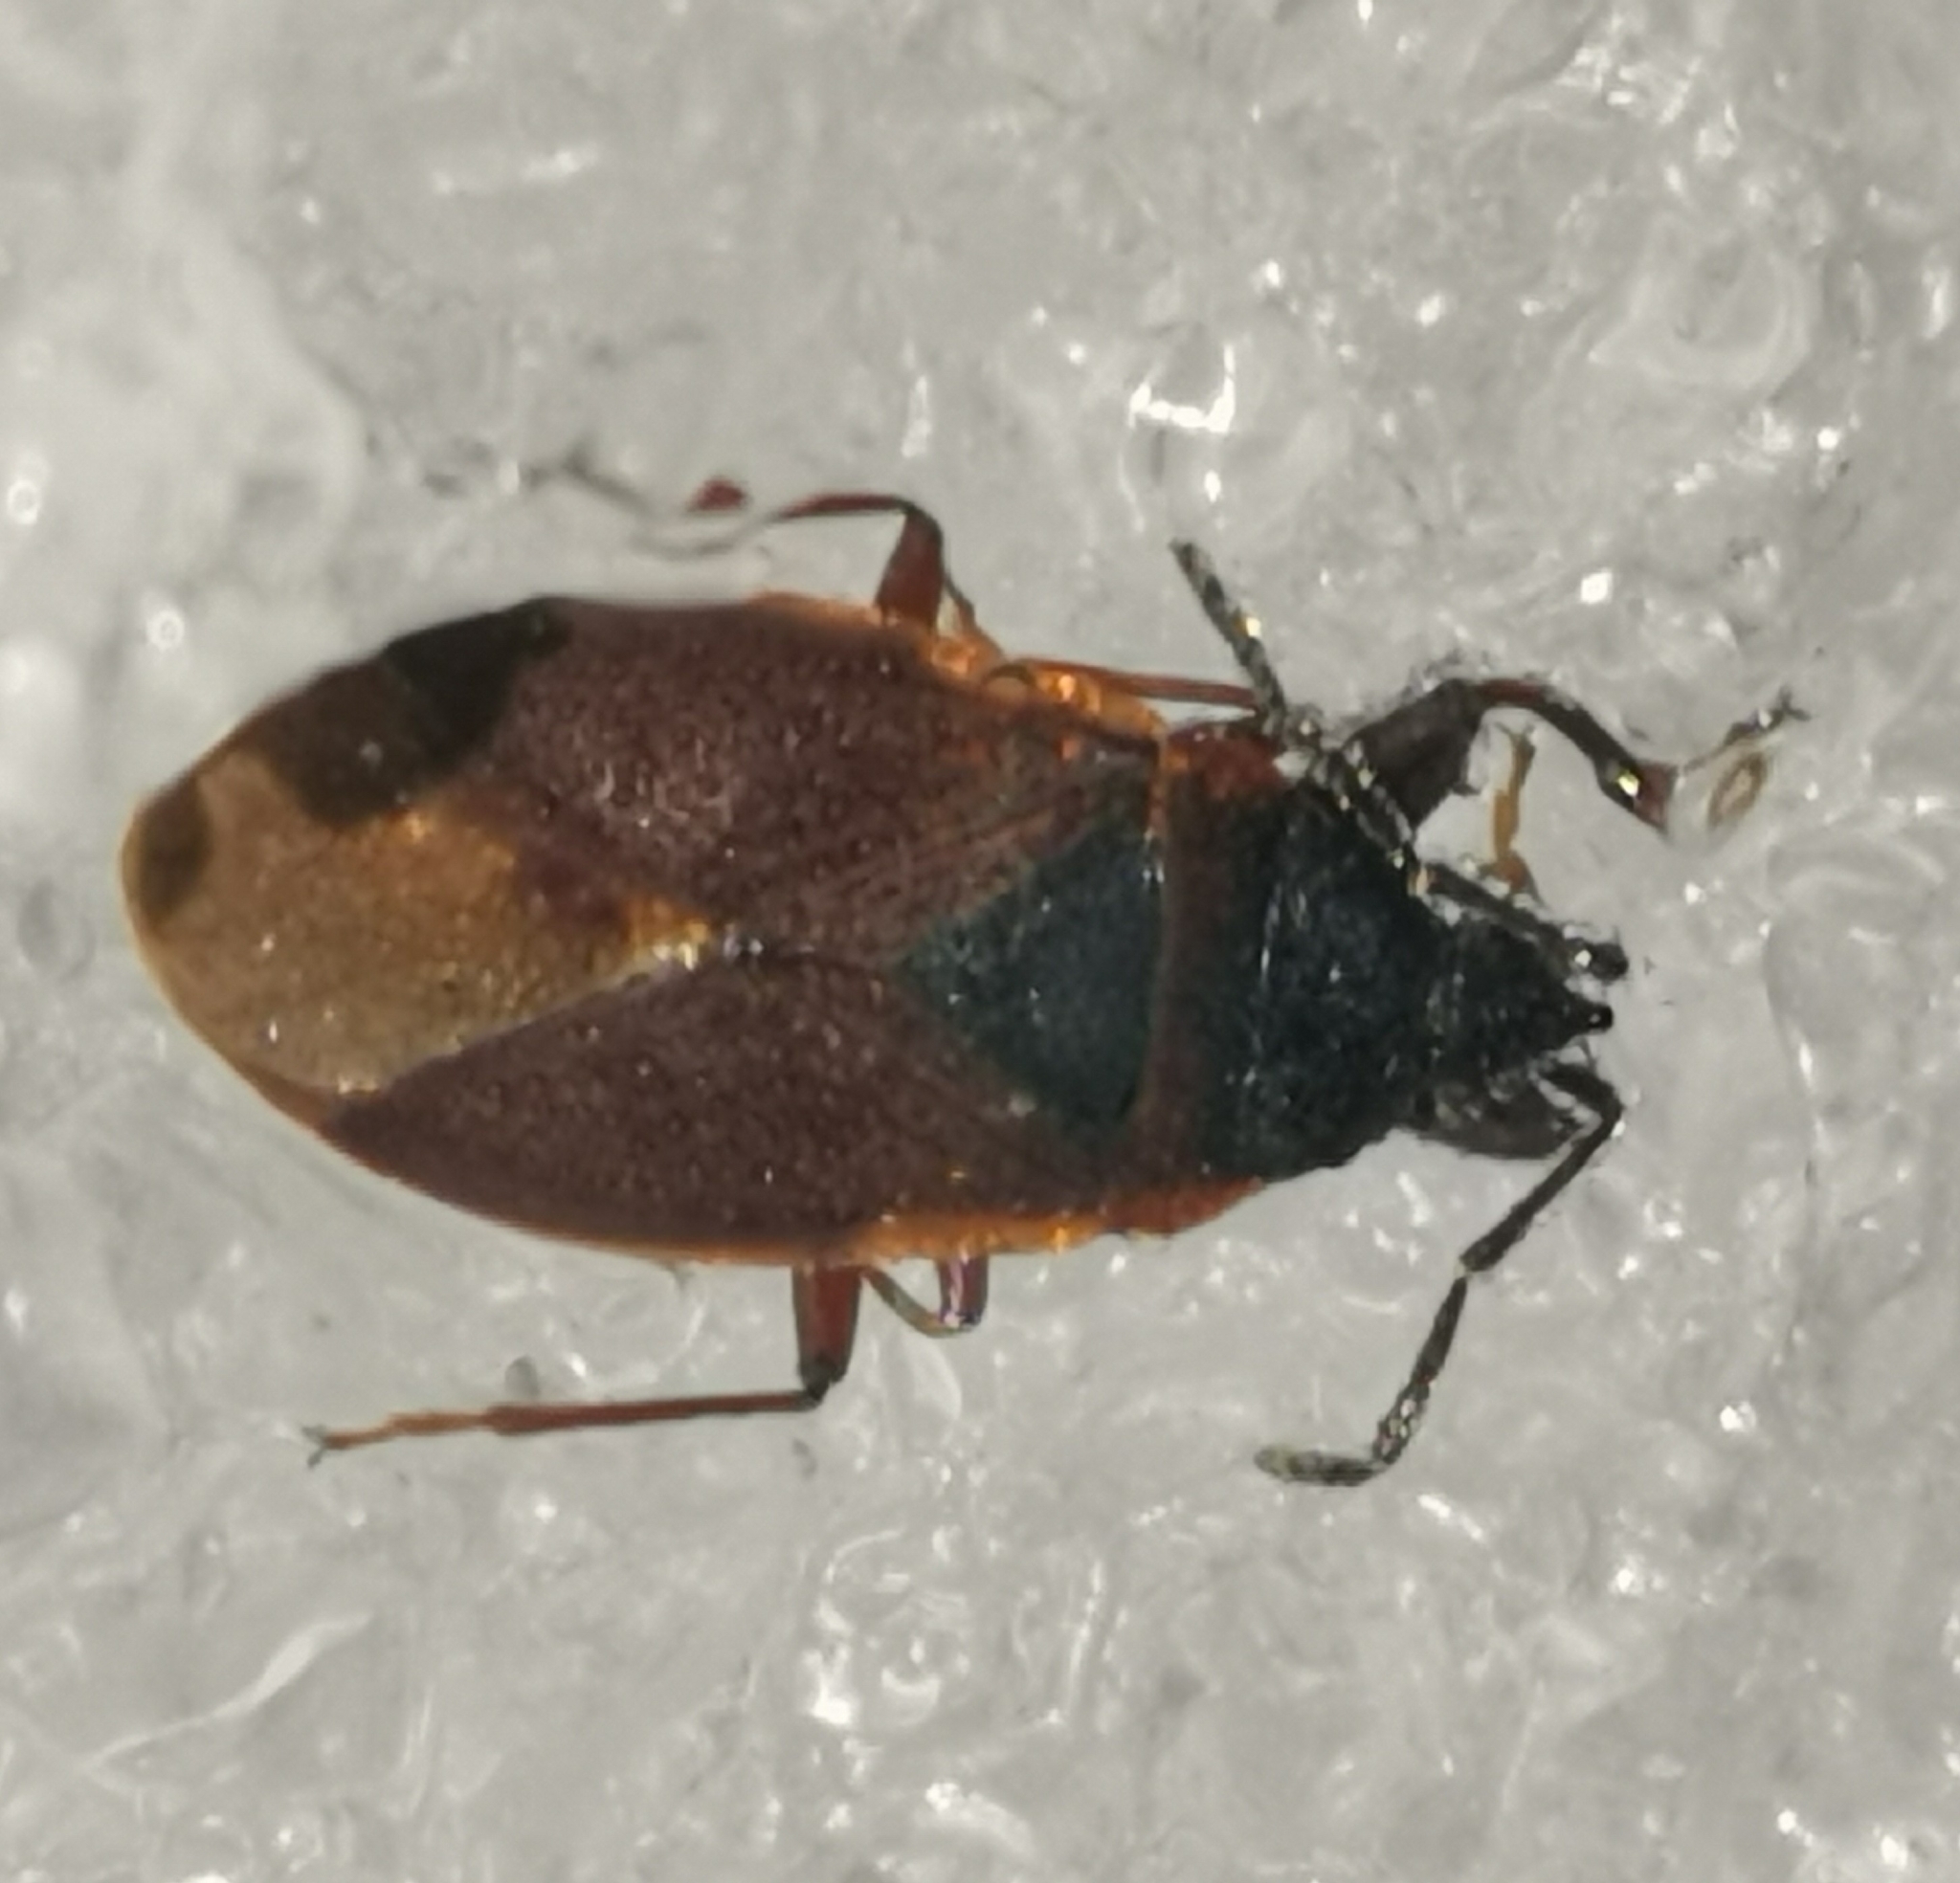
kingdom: Animalia
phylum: Arthropoda
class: Insecta
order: Hemiptera
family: Rhyparochromidae
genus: Gastrodes
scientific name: Gastrodes grossipes
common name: Pine cone bug
